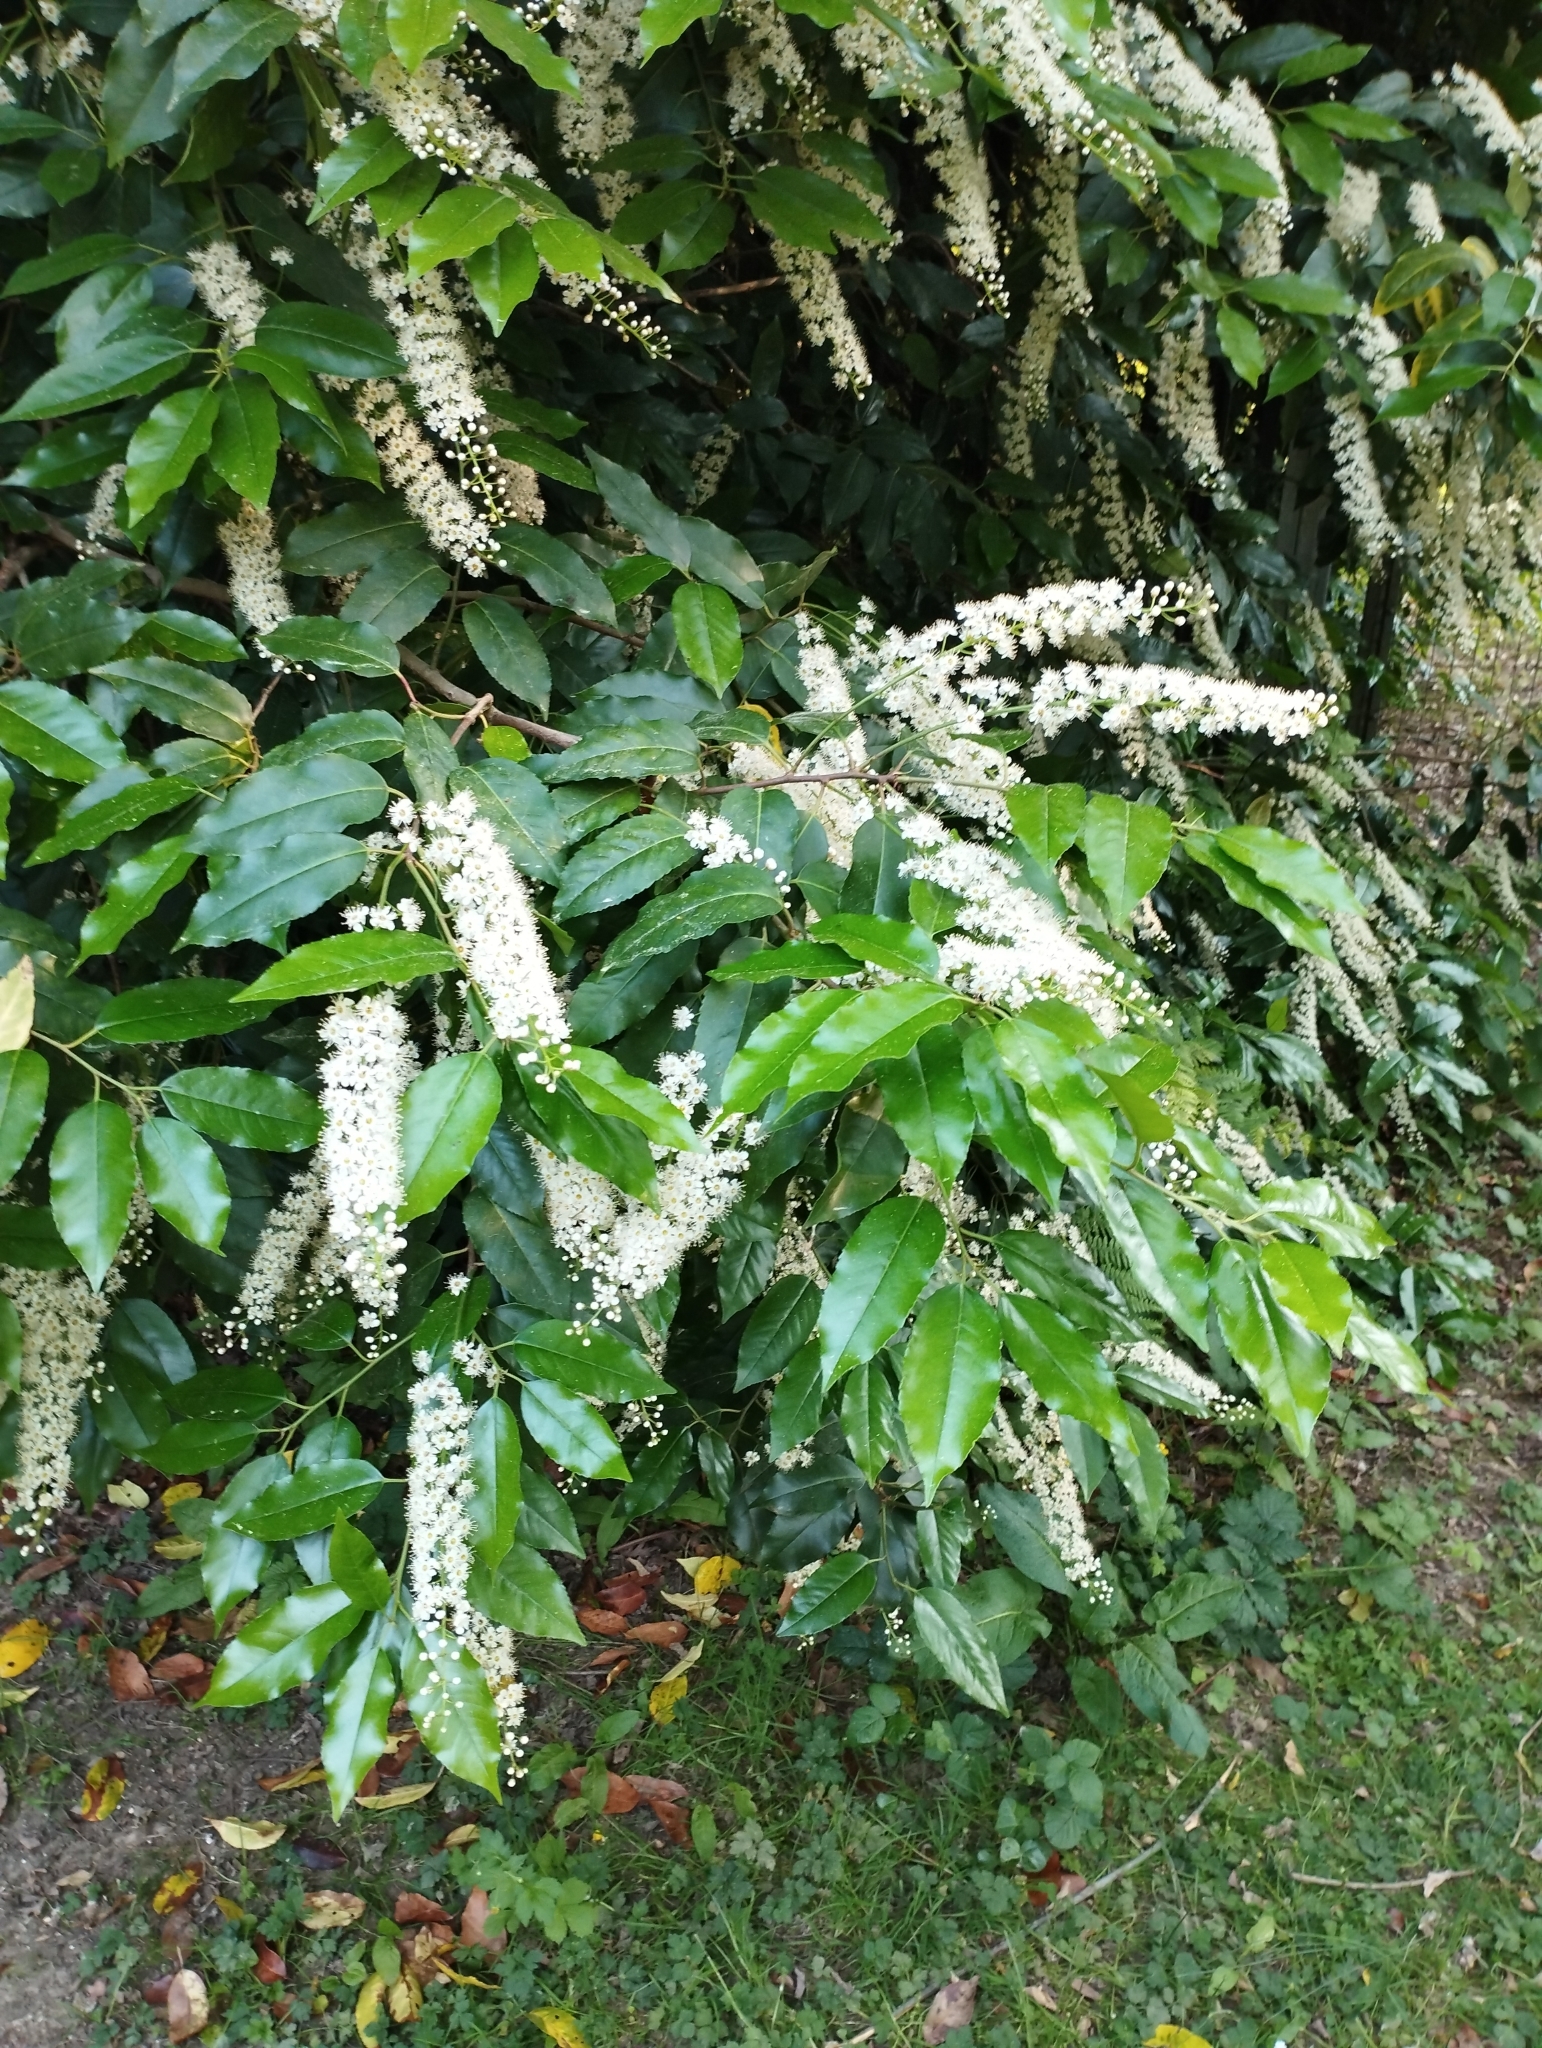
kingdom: Plantae
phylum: Tracheophyta
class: Magnoliopsida
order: Rosales
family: Rosaceae
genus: Prunus
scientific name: Prunus laurocerasus
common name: Cherry laurel
